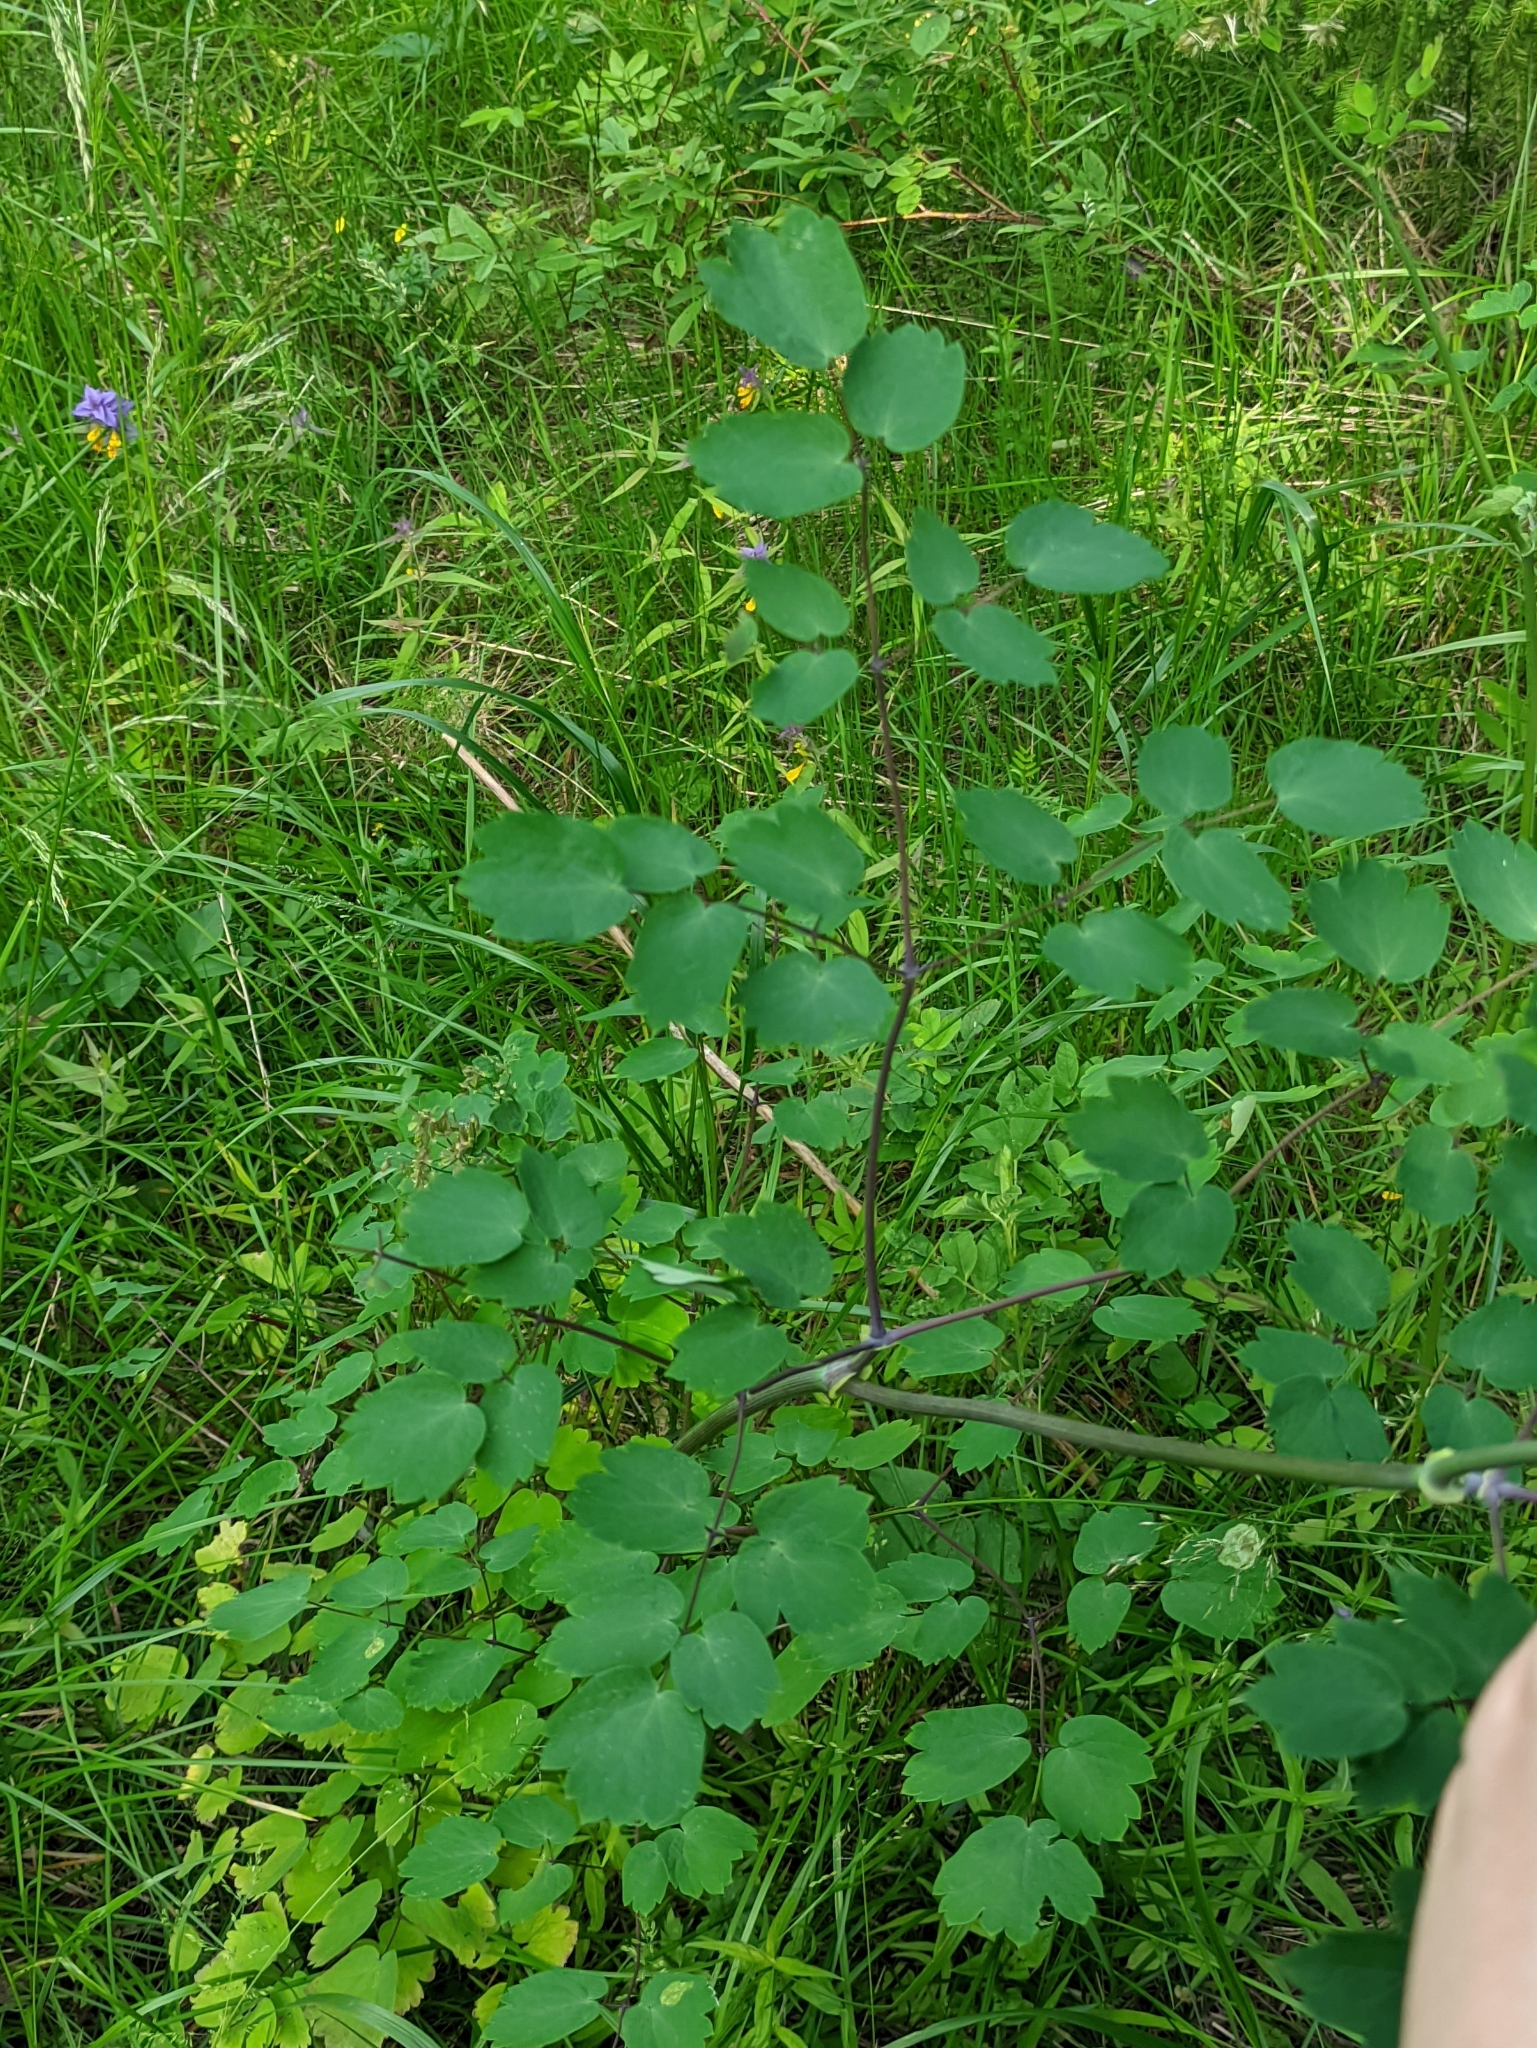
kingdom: Plantae
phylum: Tracheophyta
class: Magnoliopsida
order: Ranunculales
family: Ranunculaceae
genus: Thalictrum
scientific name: Thalictrum aquilegiifolium
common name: French meadow-rue
